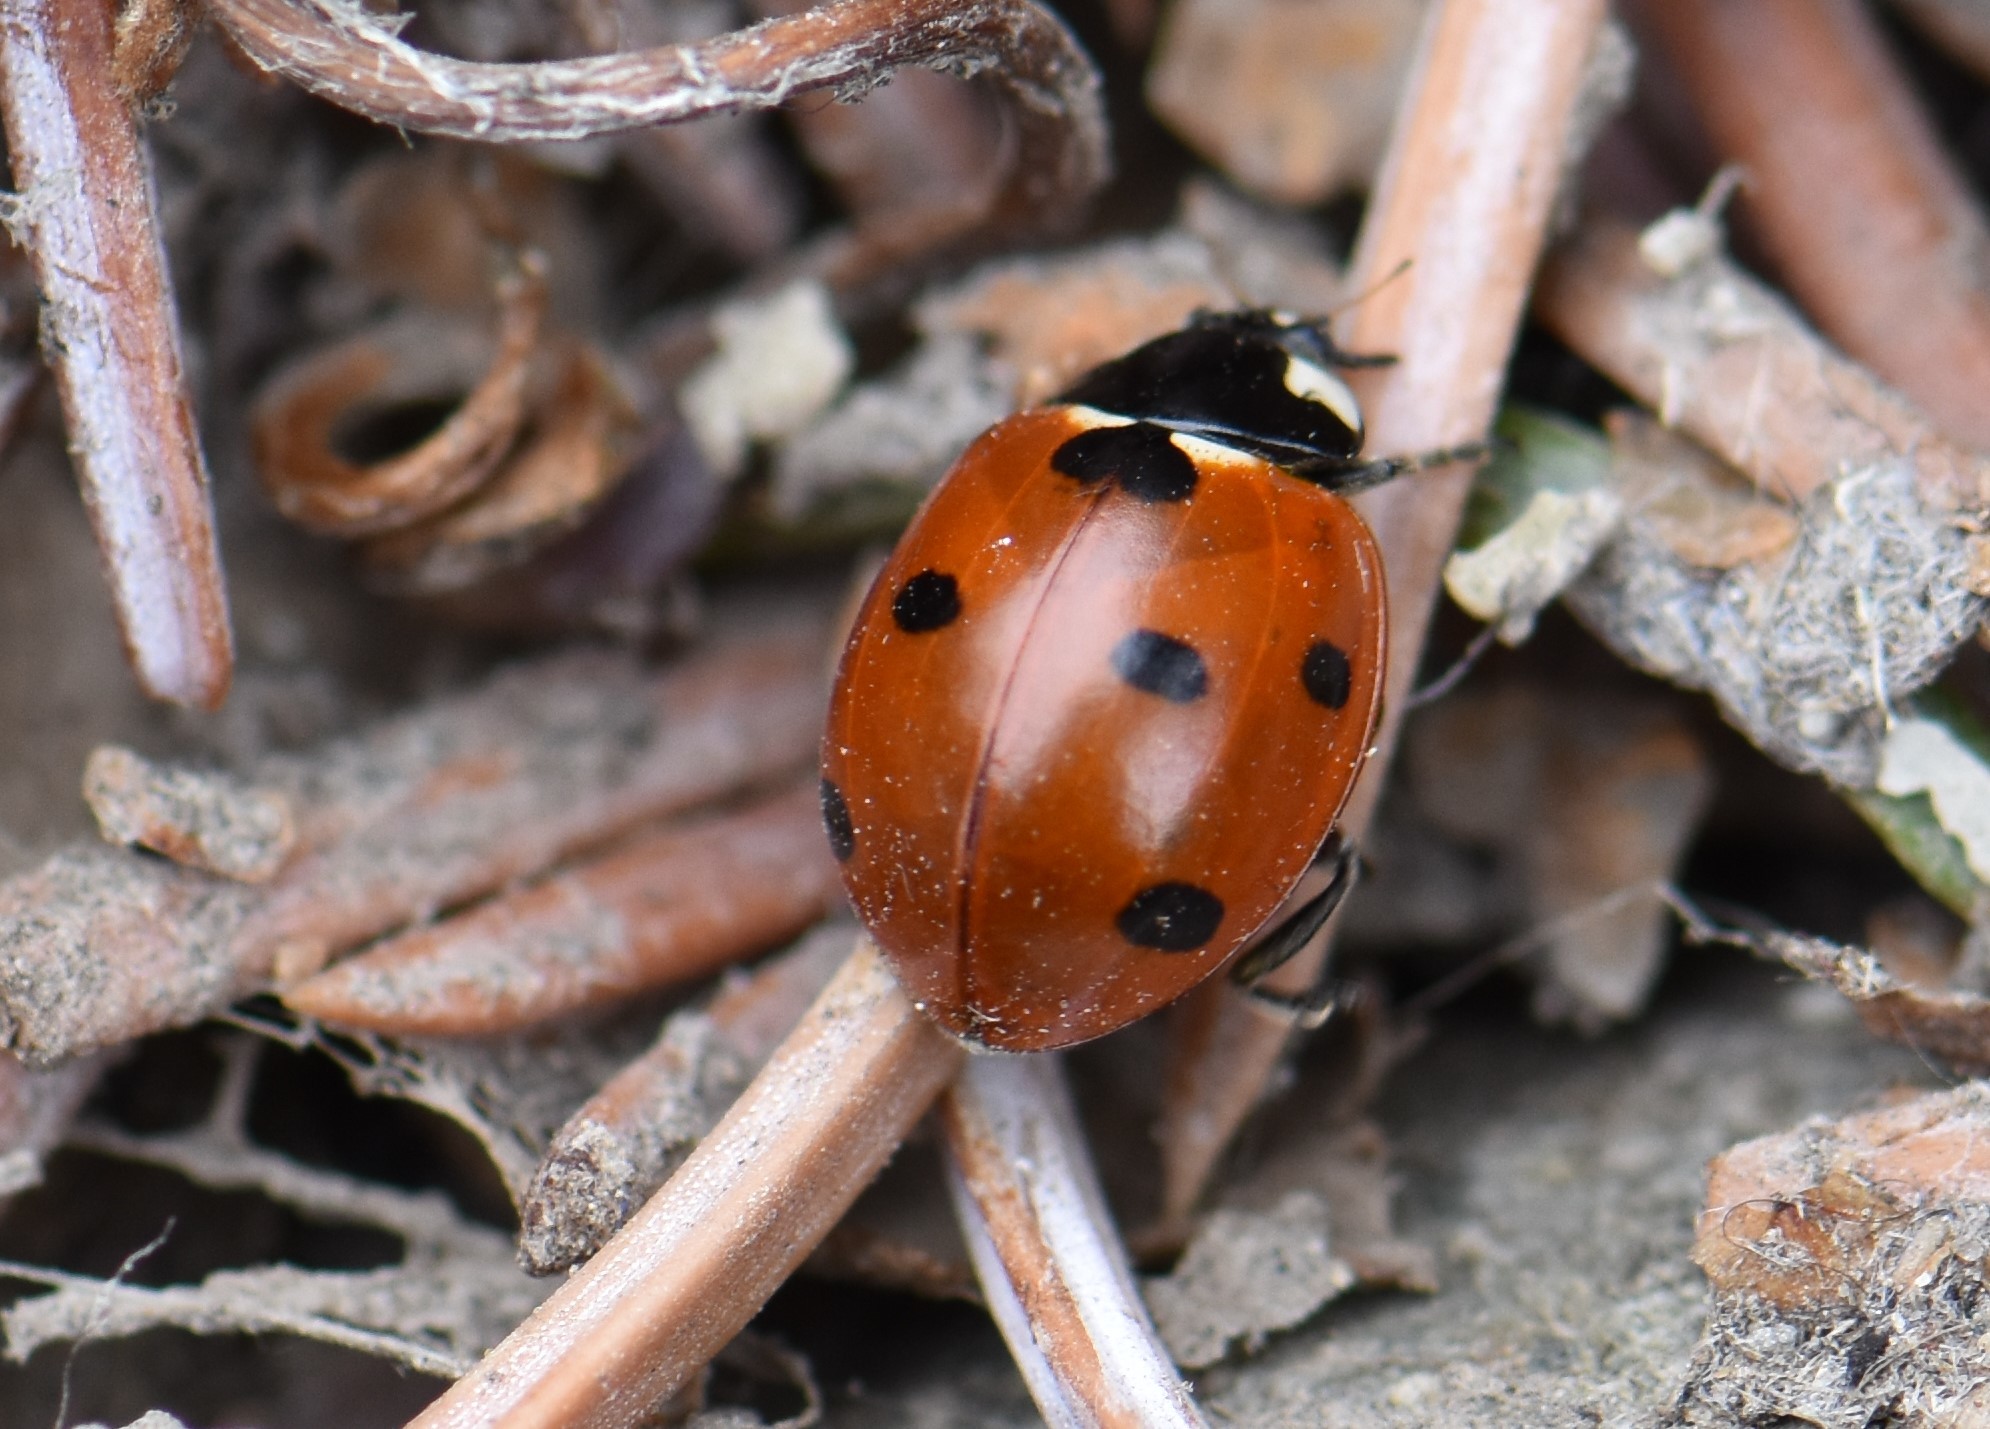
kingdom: Animalia
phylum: Arthropoda
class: Insecta
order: Coleoptera
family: Coccinellidae
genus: Coccinella
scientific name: Coccinella septempunctata
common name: Sevenspotted lady beetle
